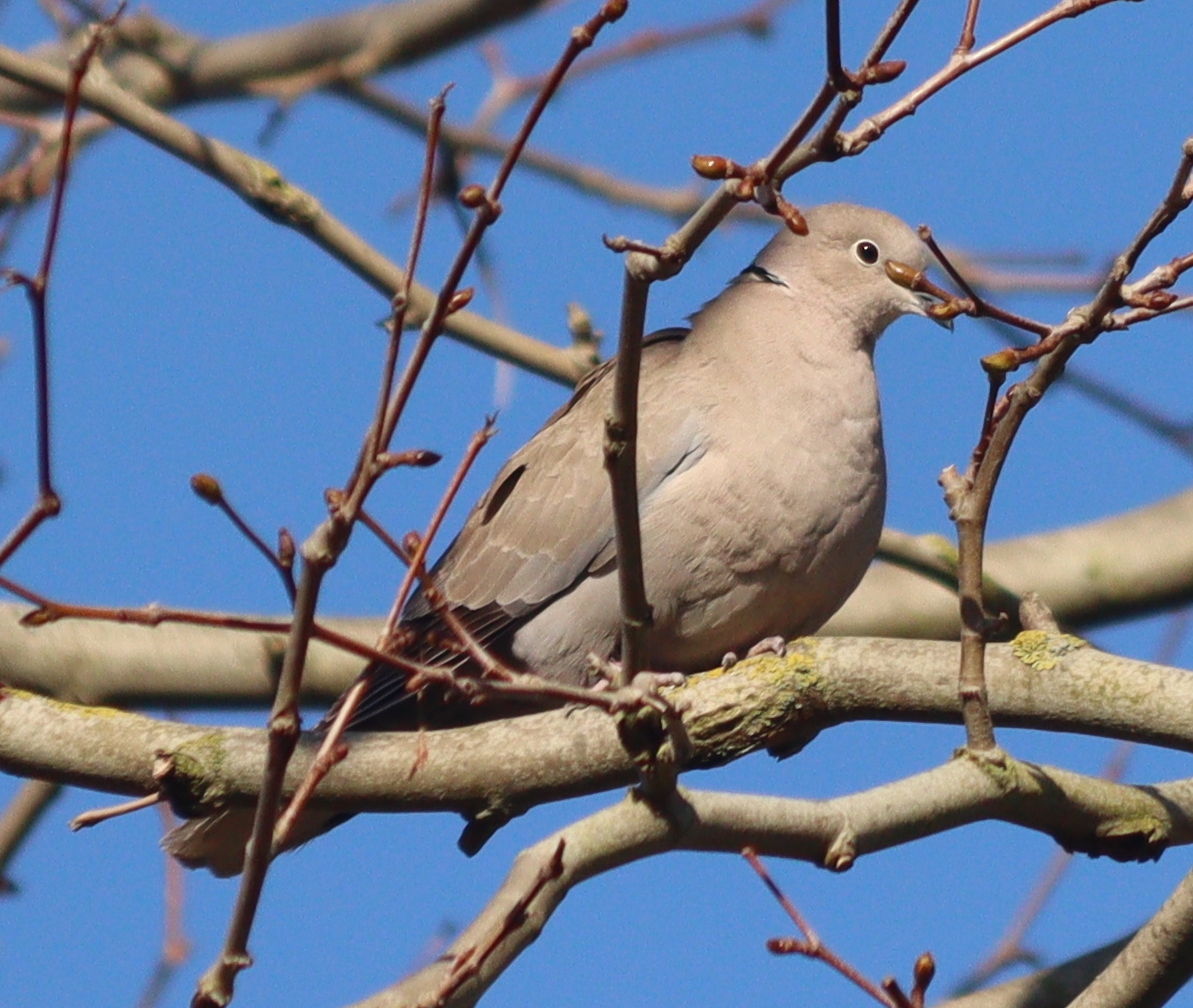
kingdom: Animalia
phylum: Chordata
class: Aves
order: Columbiformes
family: Columbidae
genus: Streptopelia
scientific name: Streptopelia decaocto
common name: Eurasian collared dove
